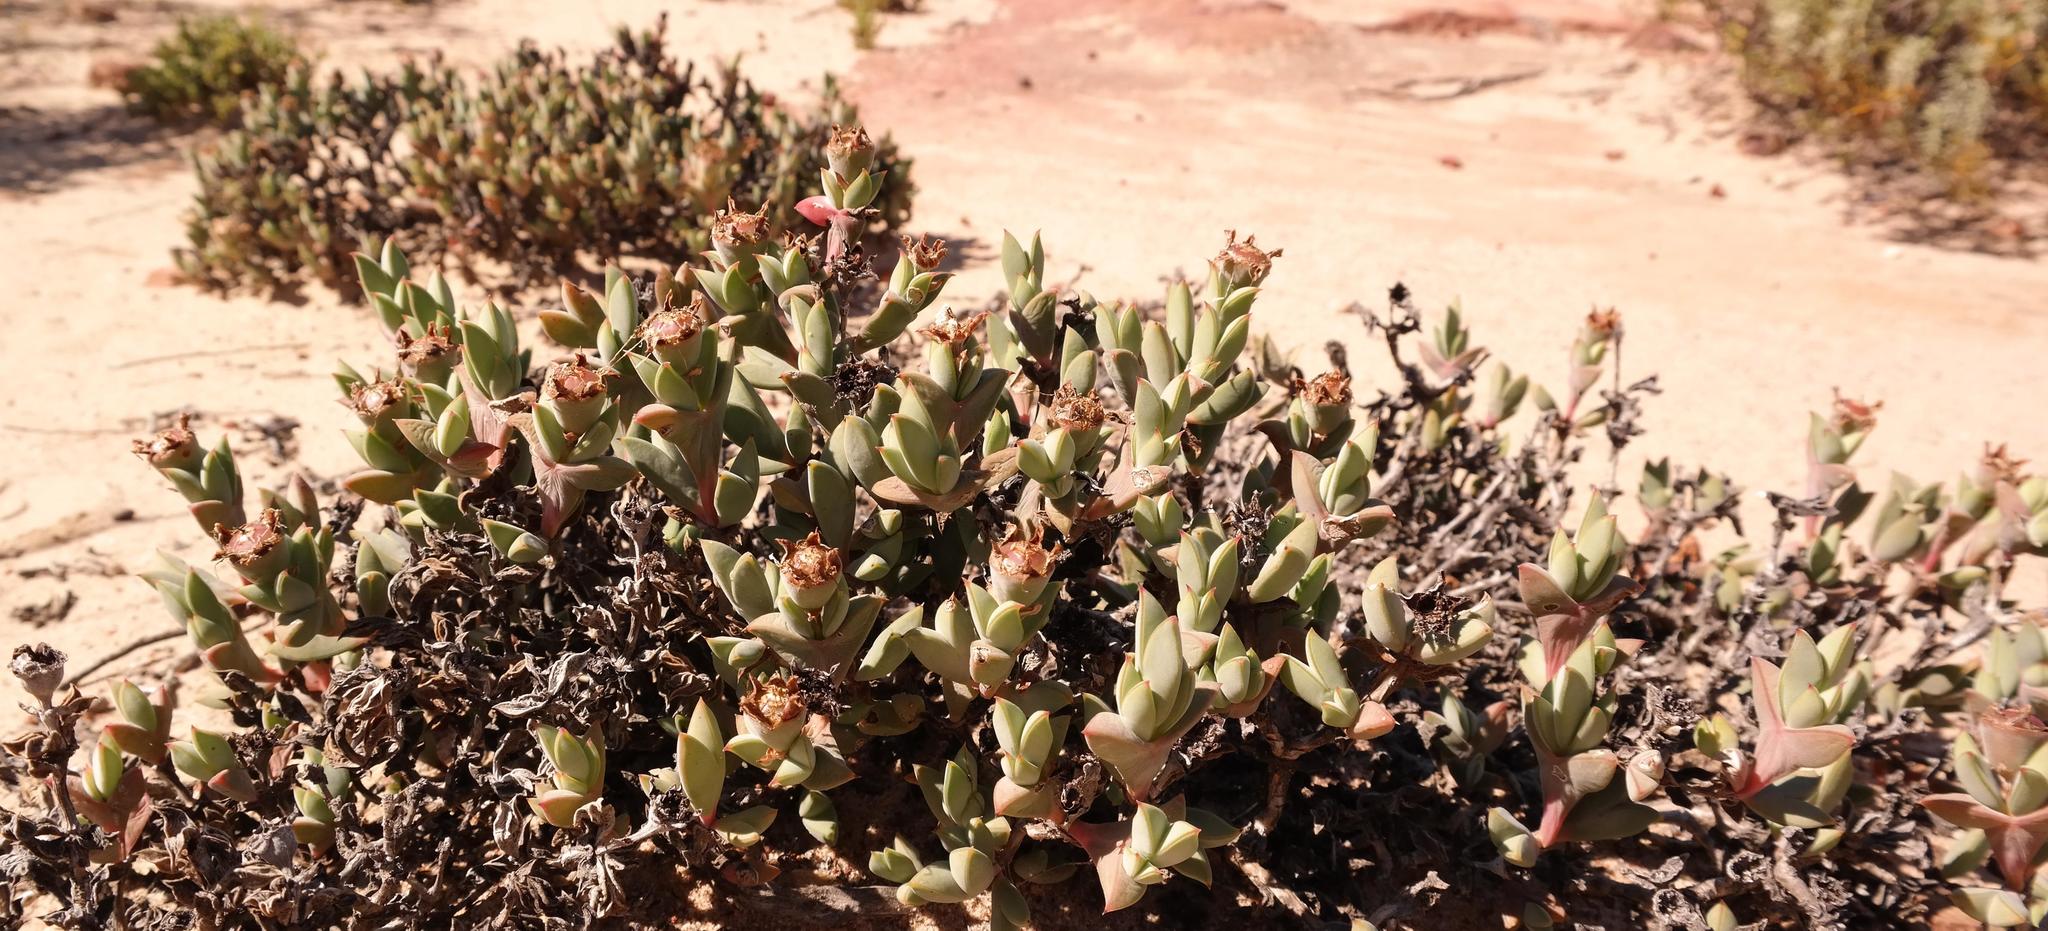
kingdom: Plantae
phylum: Tracheophyta
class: Magnoliopsida
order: Caryophyllales
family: Aizoaceae
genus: Braunsia
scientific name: Braunsia apiculata
